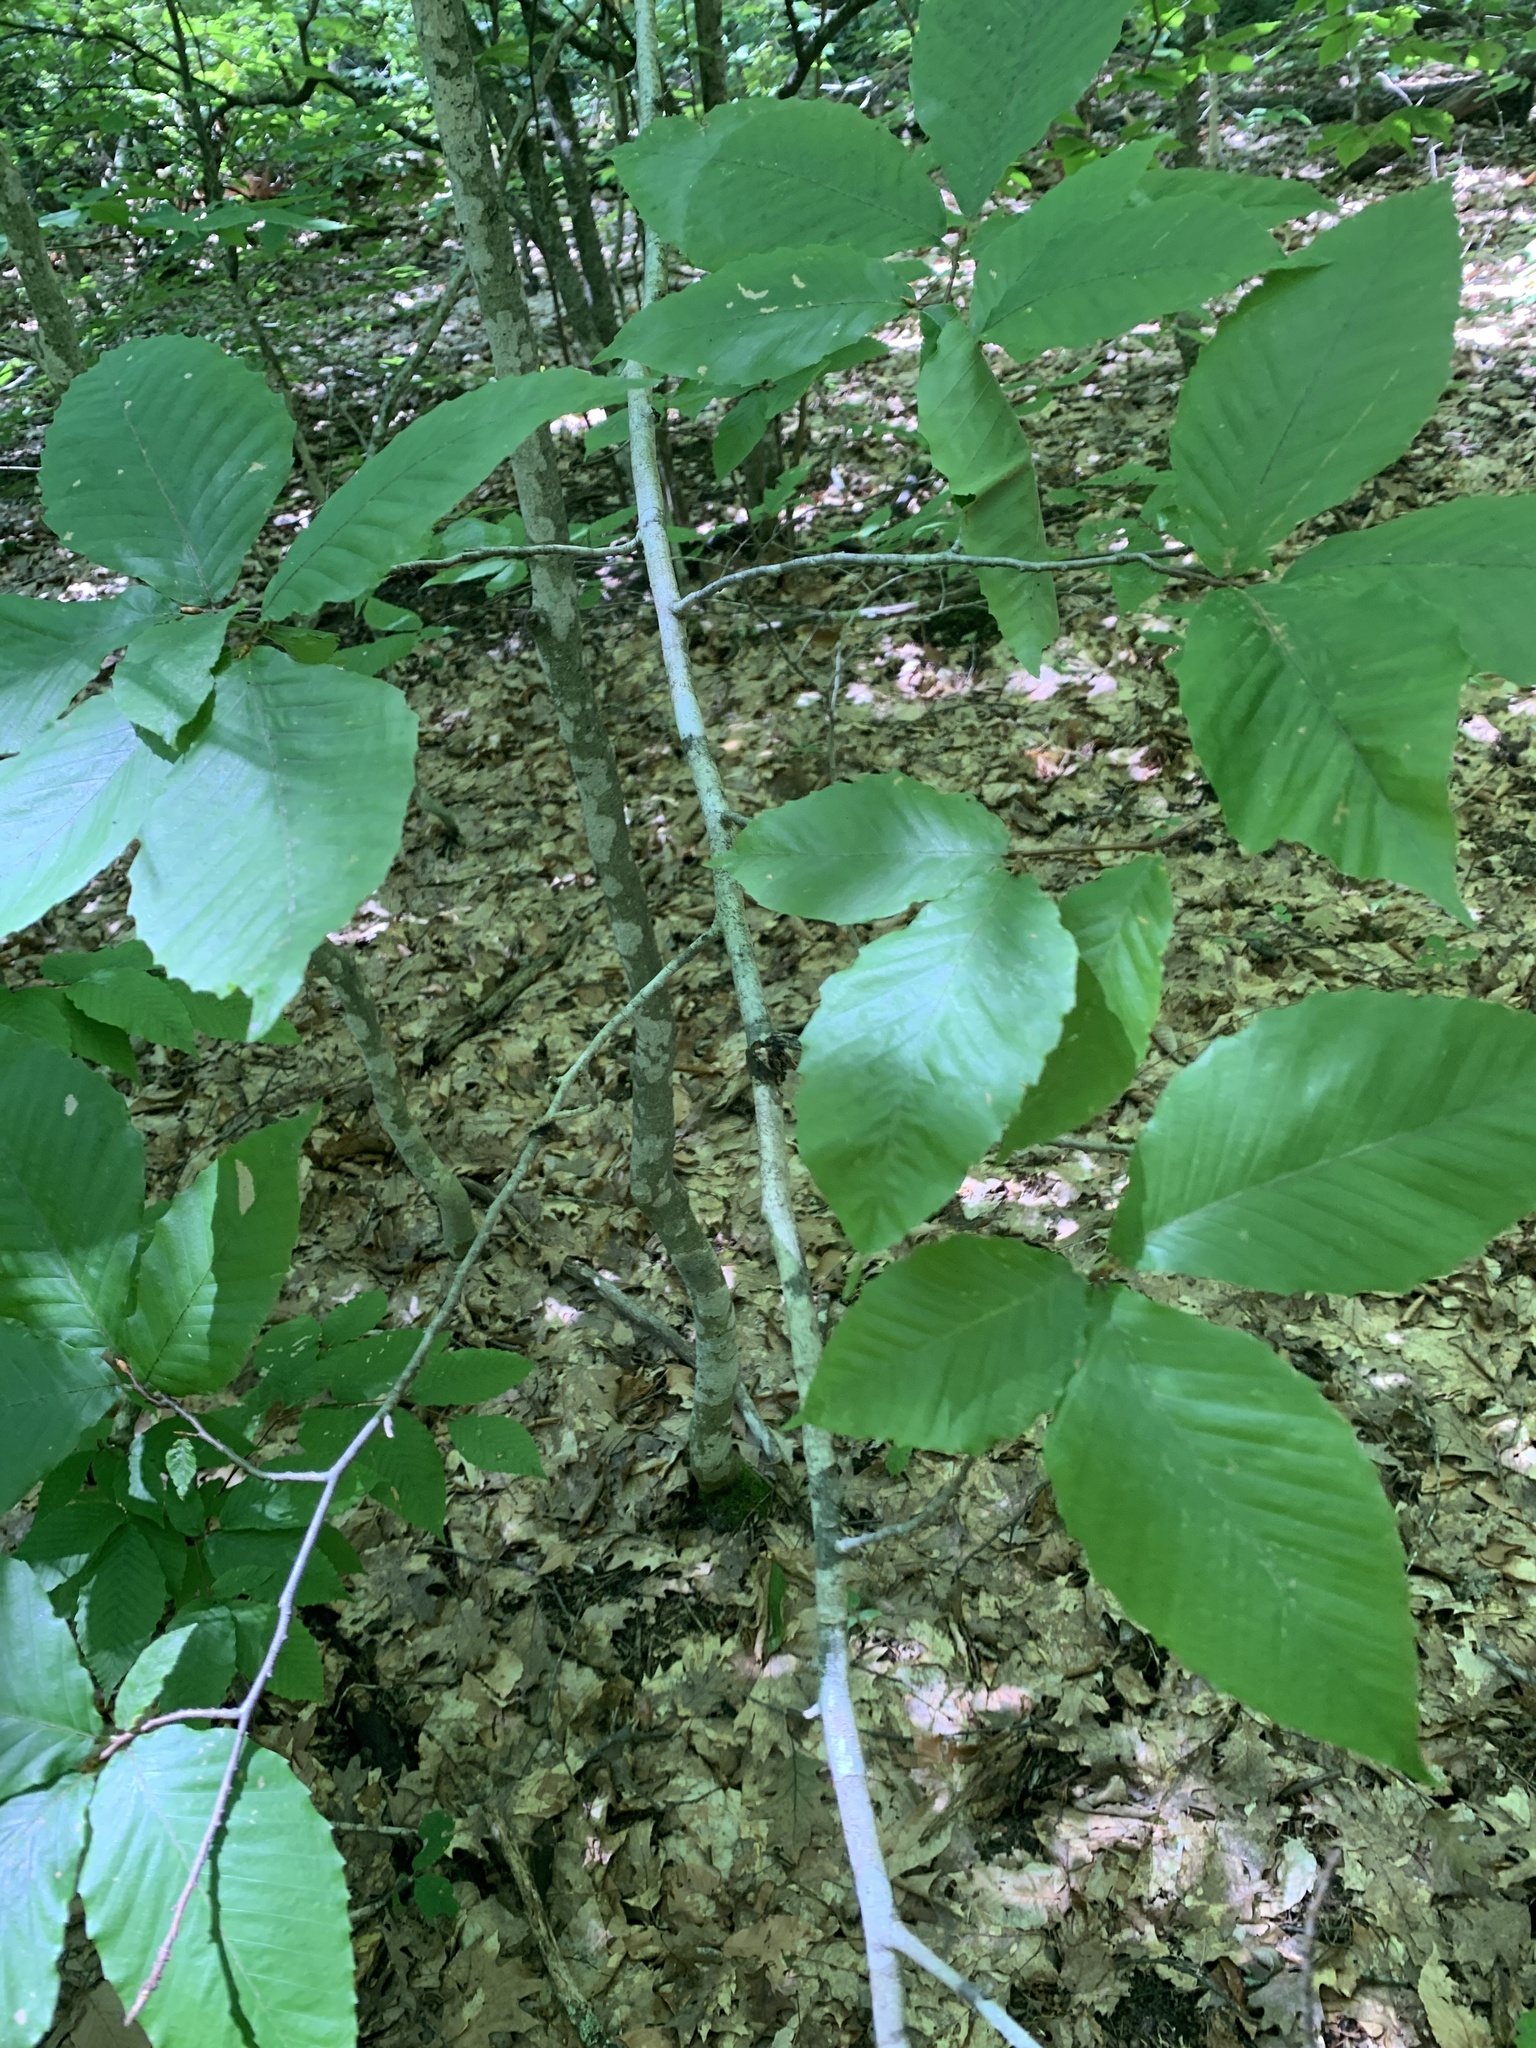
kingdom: Plantae
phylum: Tracheophyta
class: Magnoliopsida
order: Fagales
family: Fagaceae
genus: Fagus
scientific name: Fagus grandifolia
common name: American beech
